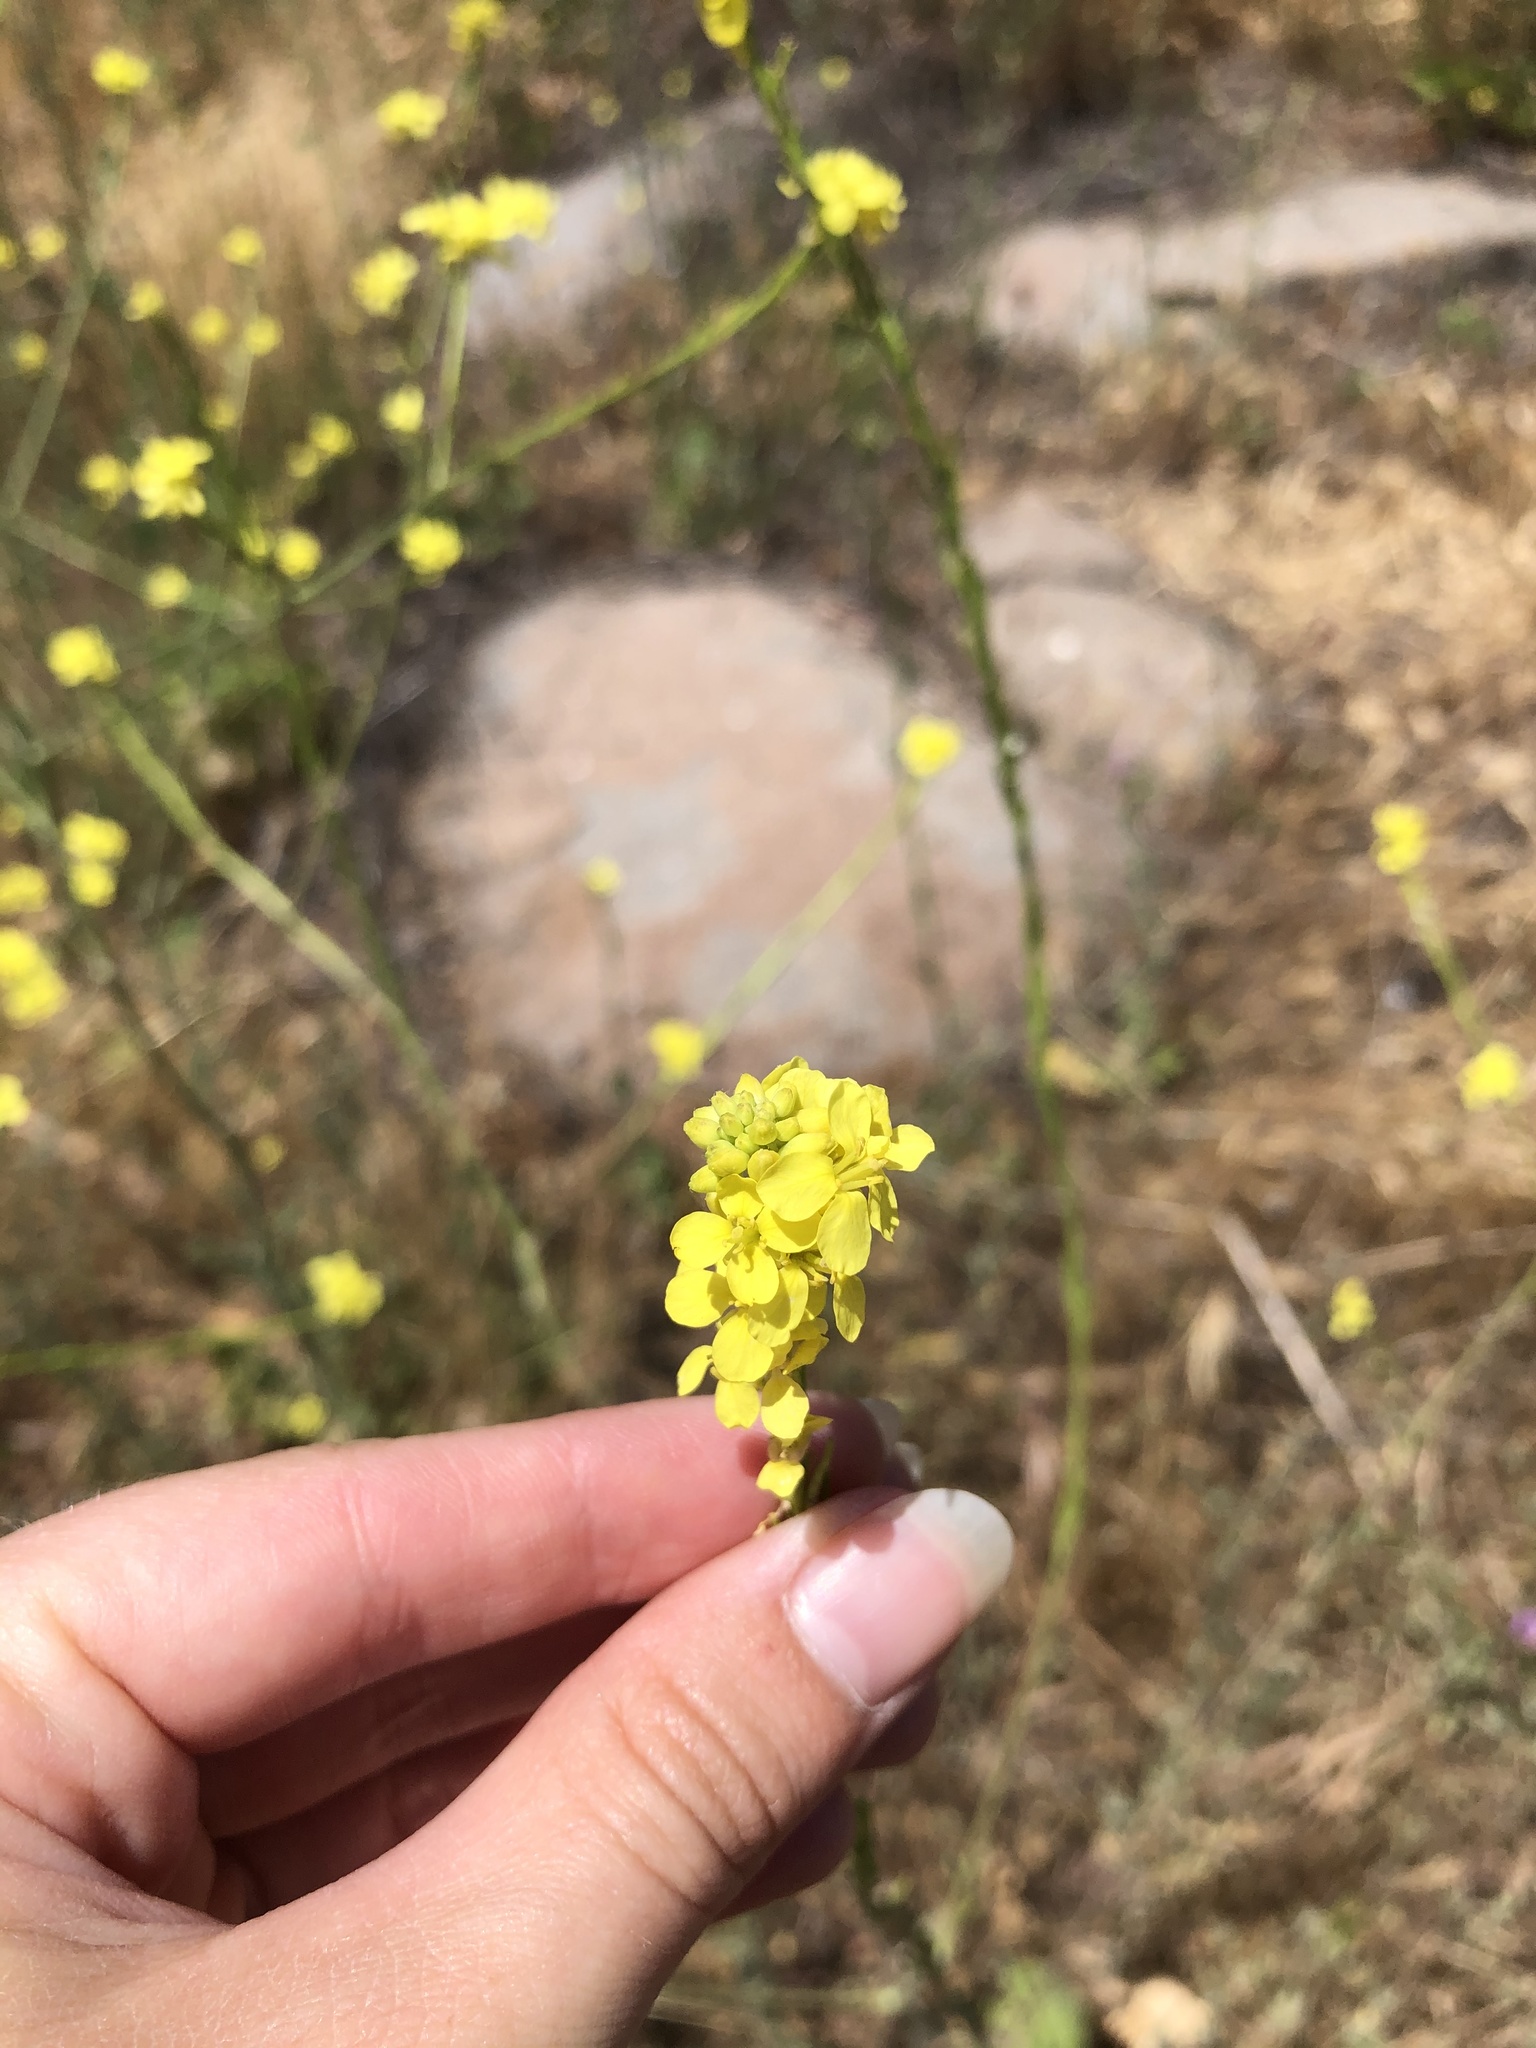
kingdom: Plantae
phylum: Tracheophyta
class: Magnoliopsida
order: Brassicales
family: Brassicaceae
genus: Hirschfeldia
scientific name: Hirschfeldia incana
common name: Hoary mustard
